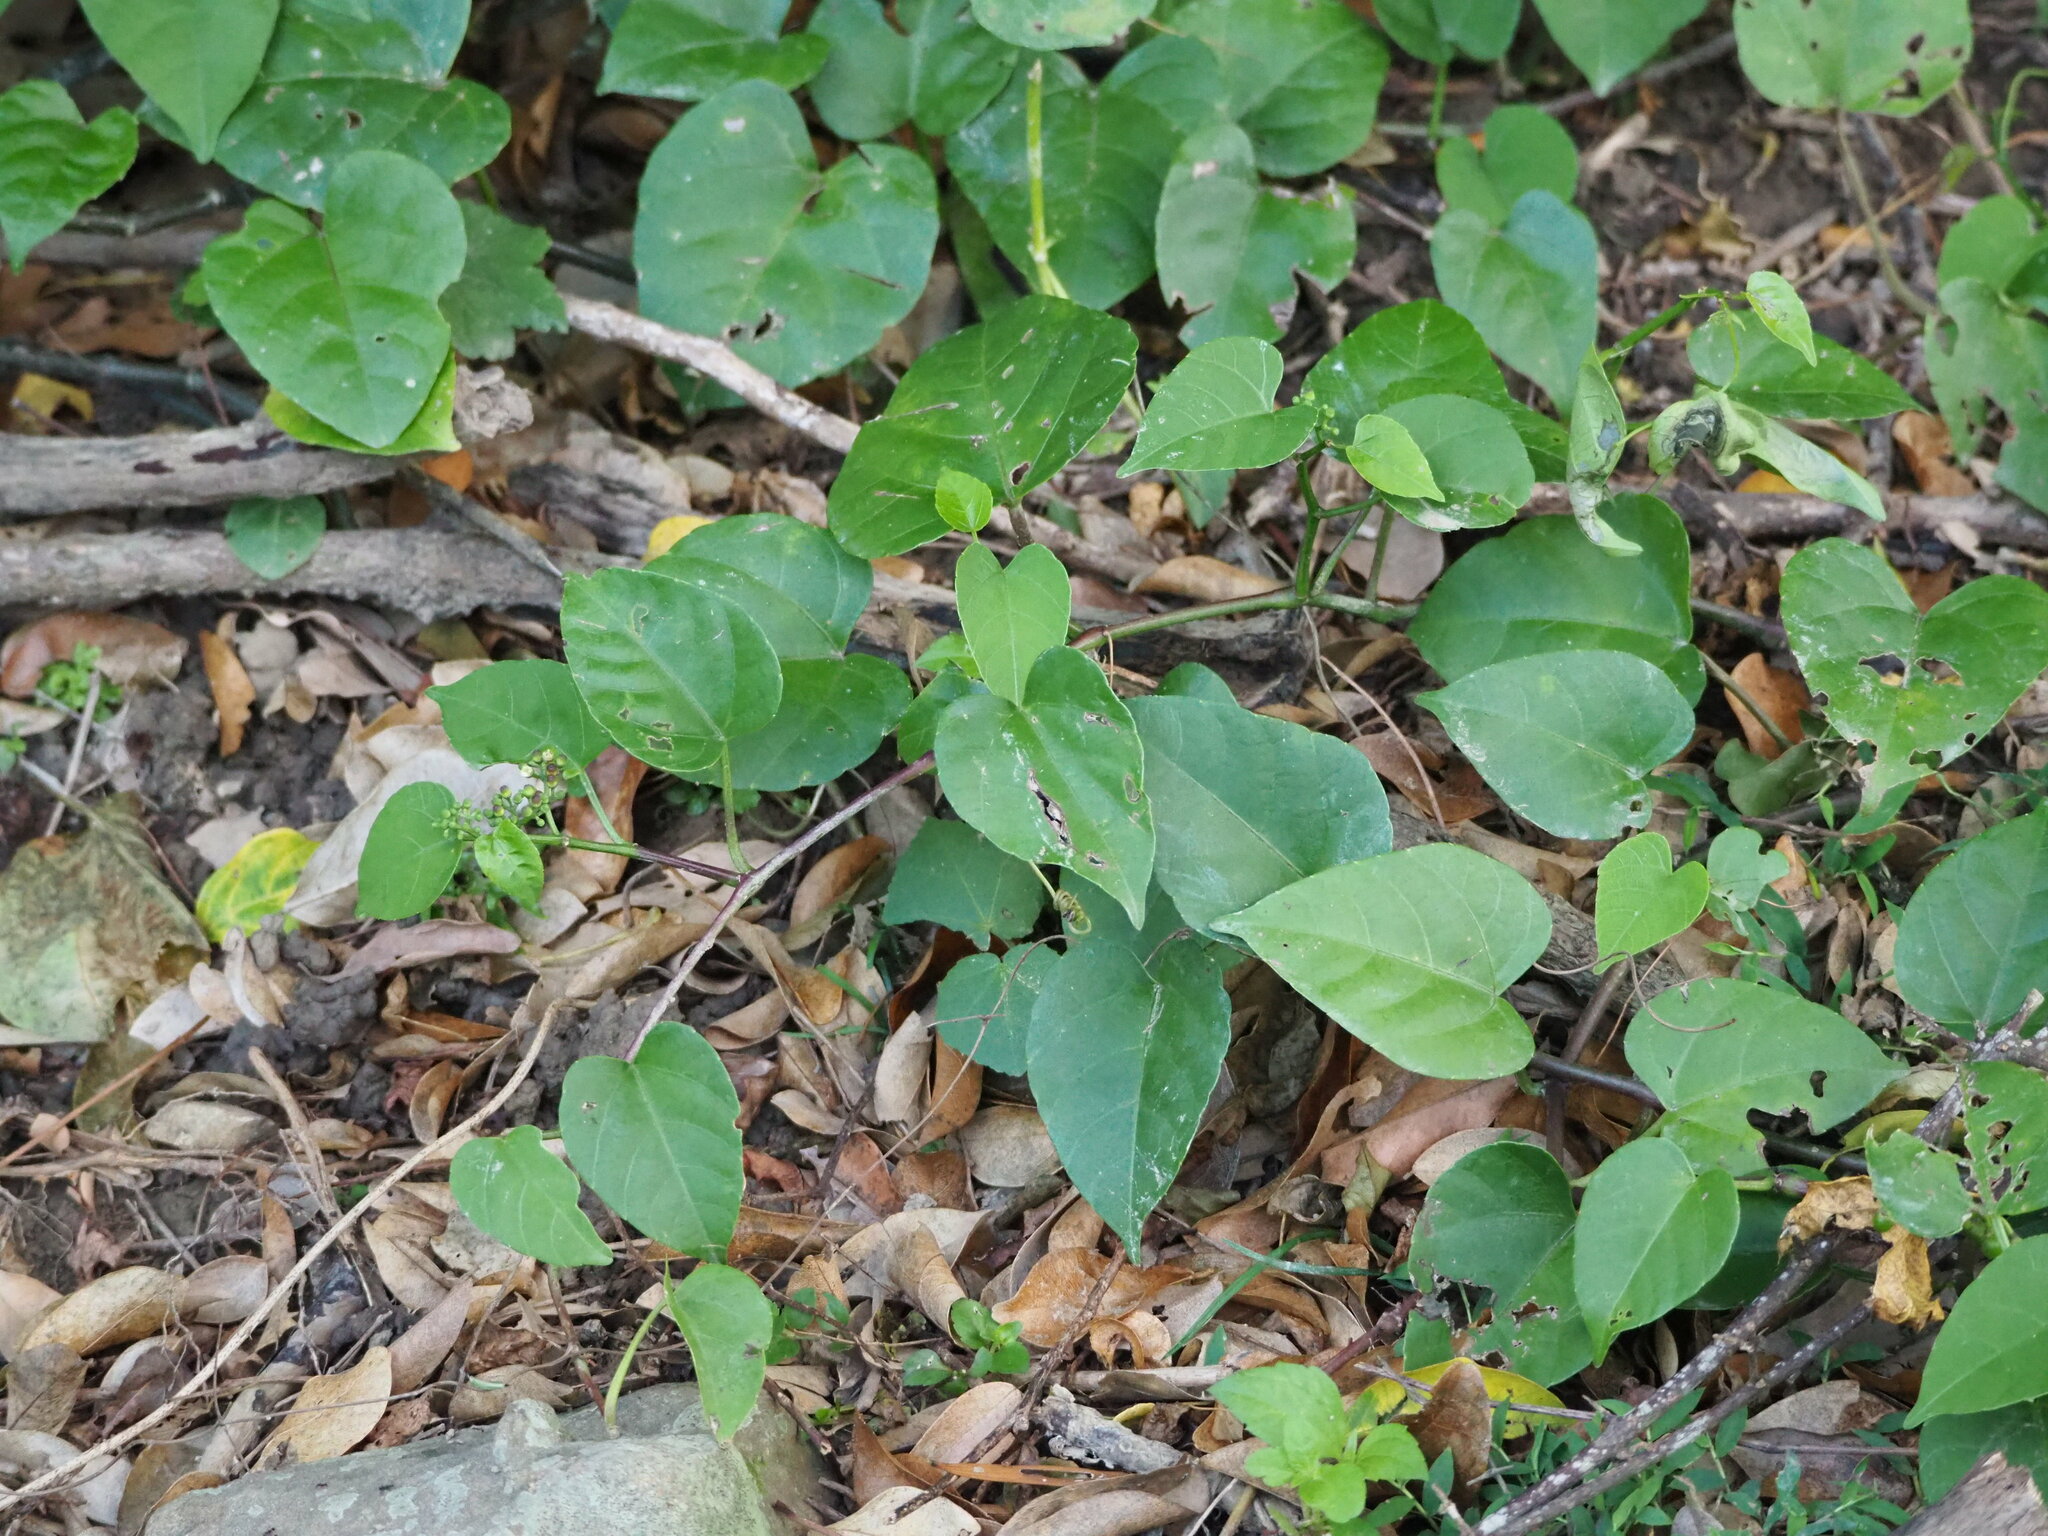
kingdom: Plantae
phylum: Tracheophyta
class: Magnoliopsida
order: Vitales
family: Vitaceae
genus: Cissus
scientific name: Cissus verticillata
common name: Princess vine
